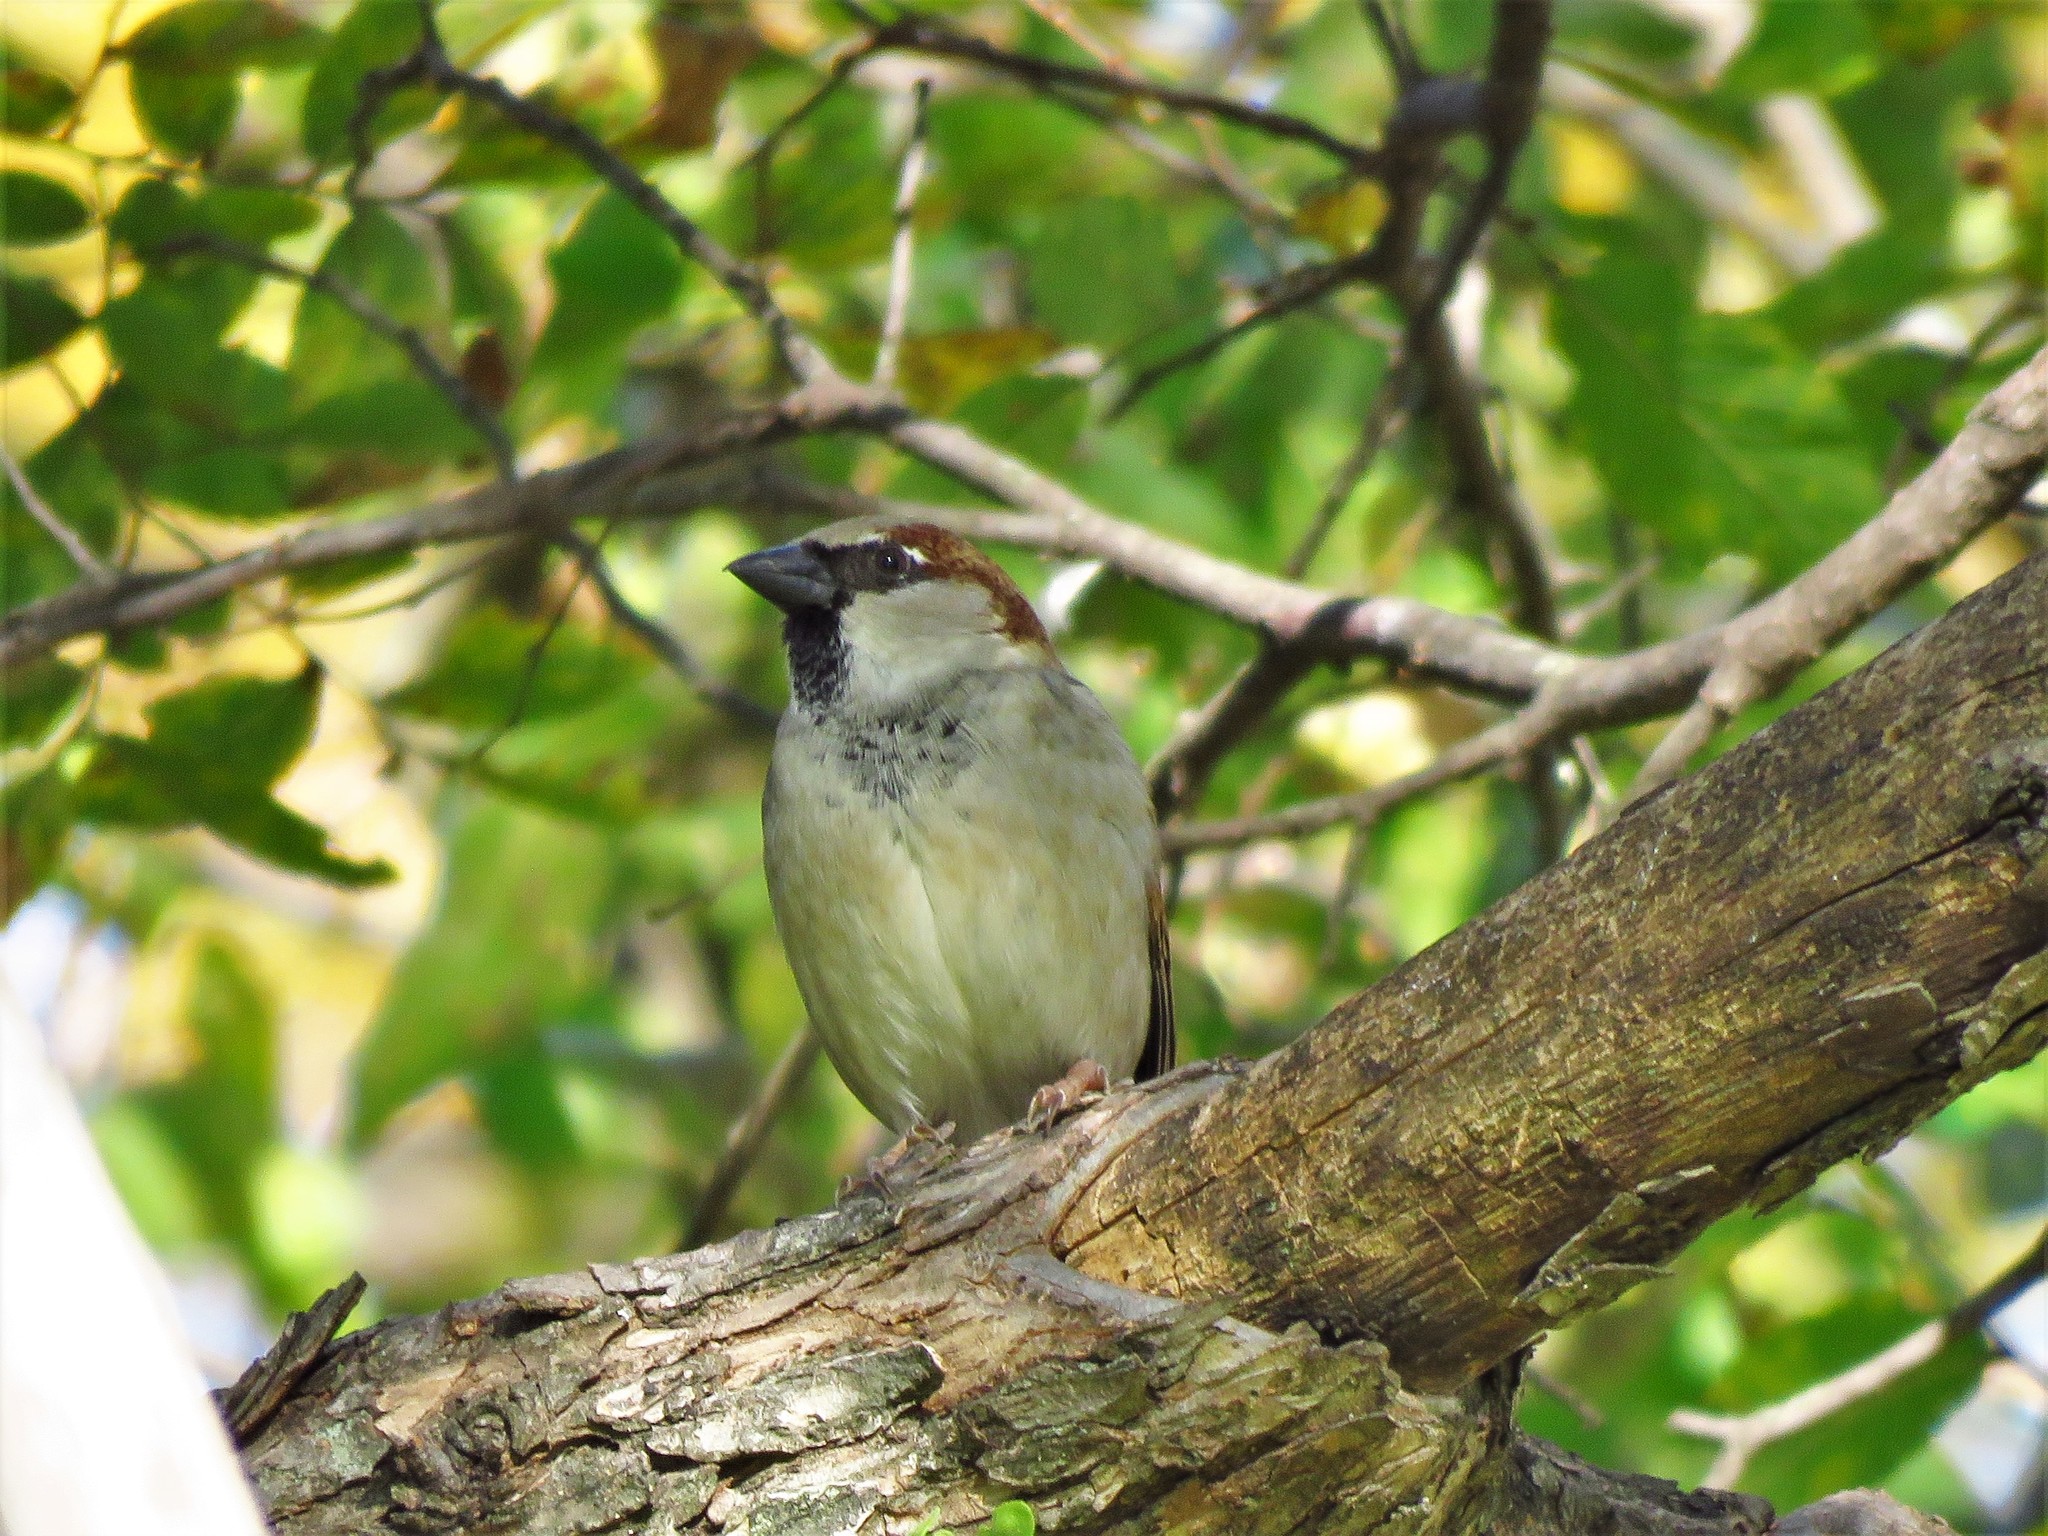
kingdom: Animalia
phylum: Chordata
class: Aves
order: Passeriformes
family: Passeridae
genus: Passer
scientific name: Passer domesticus
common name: House sparrow
